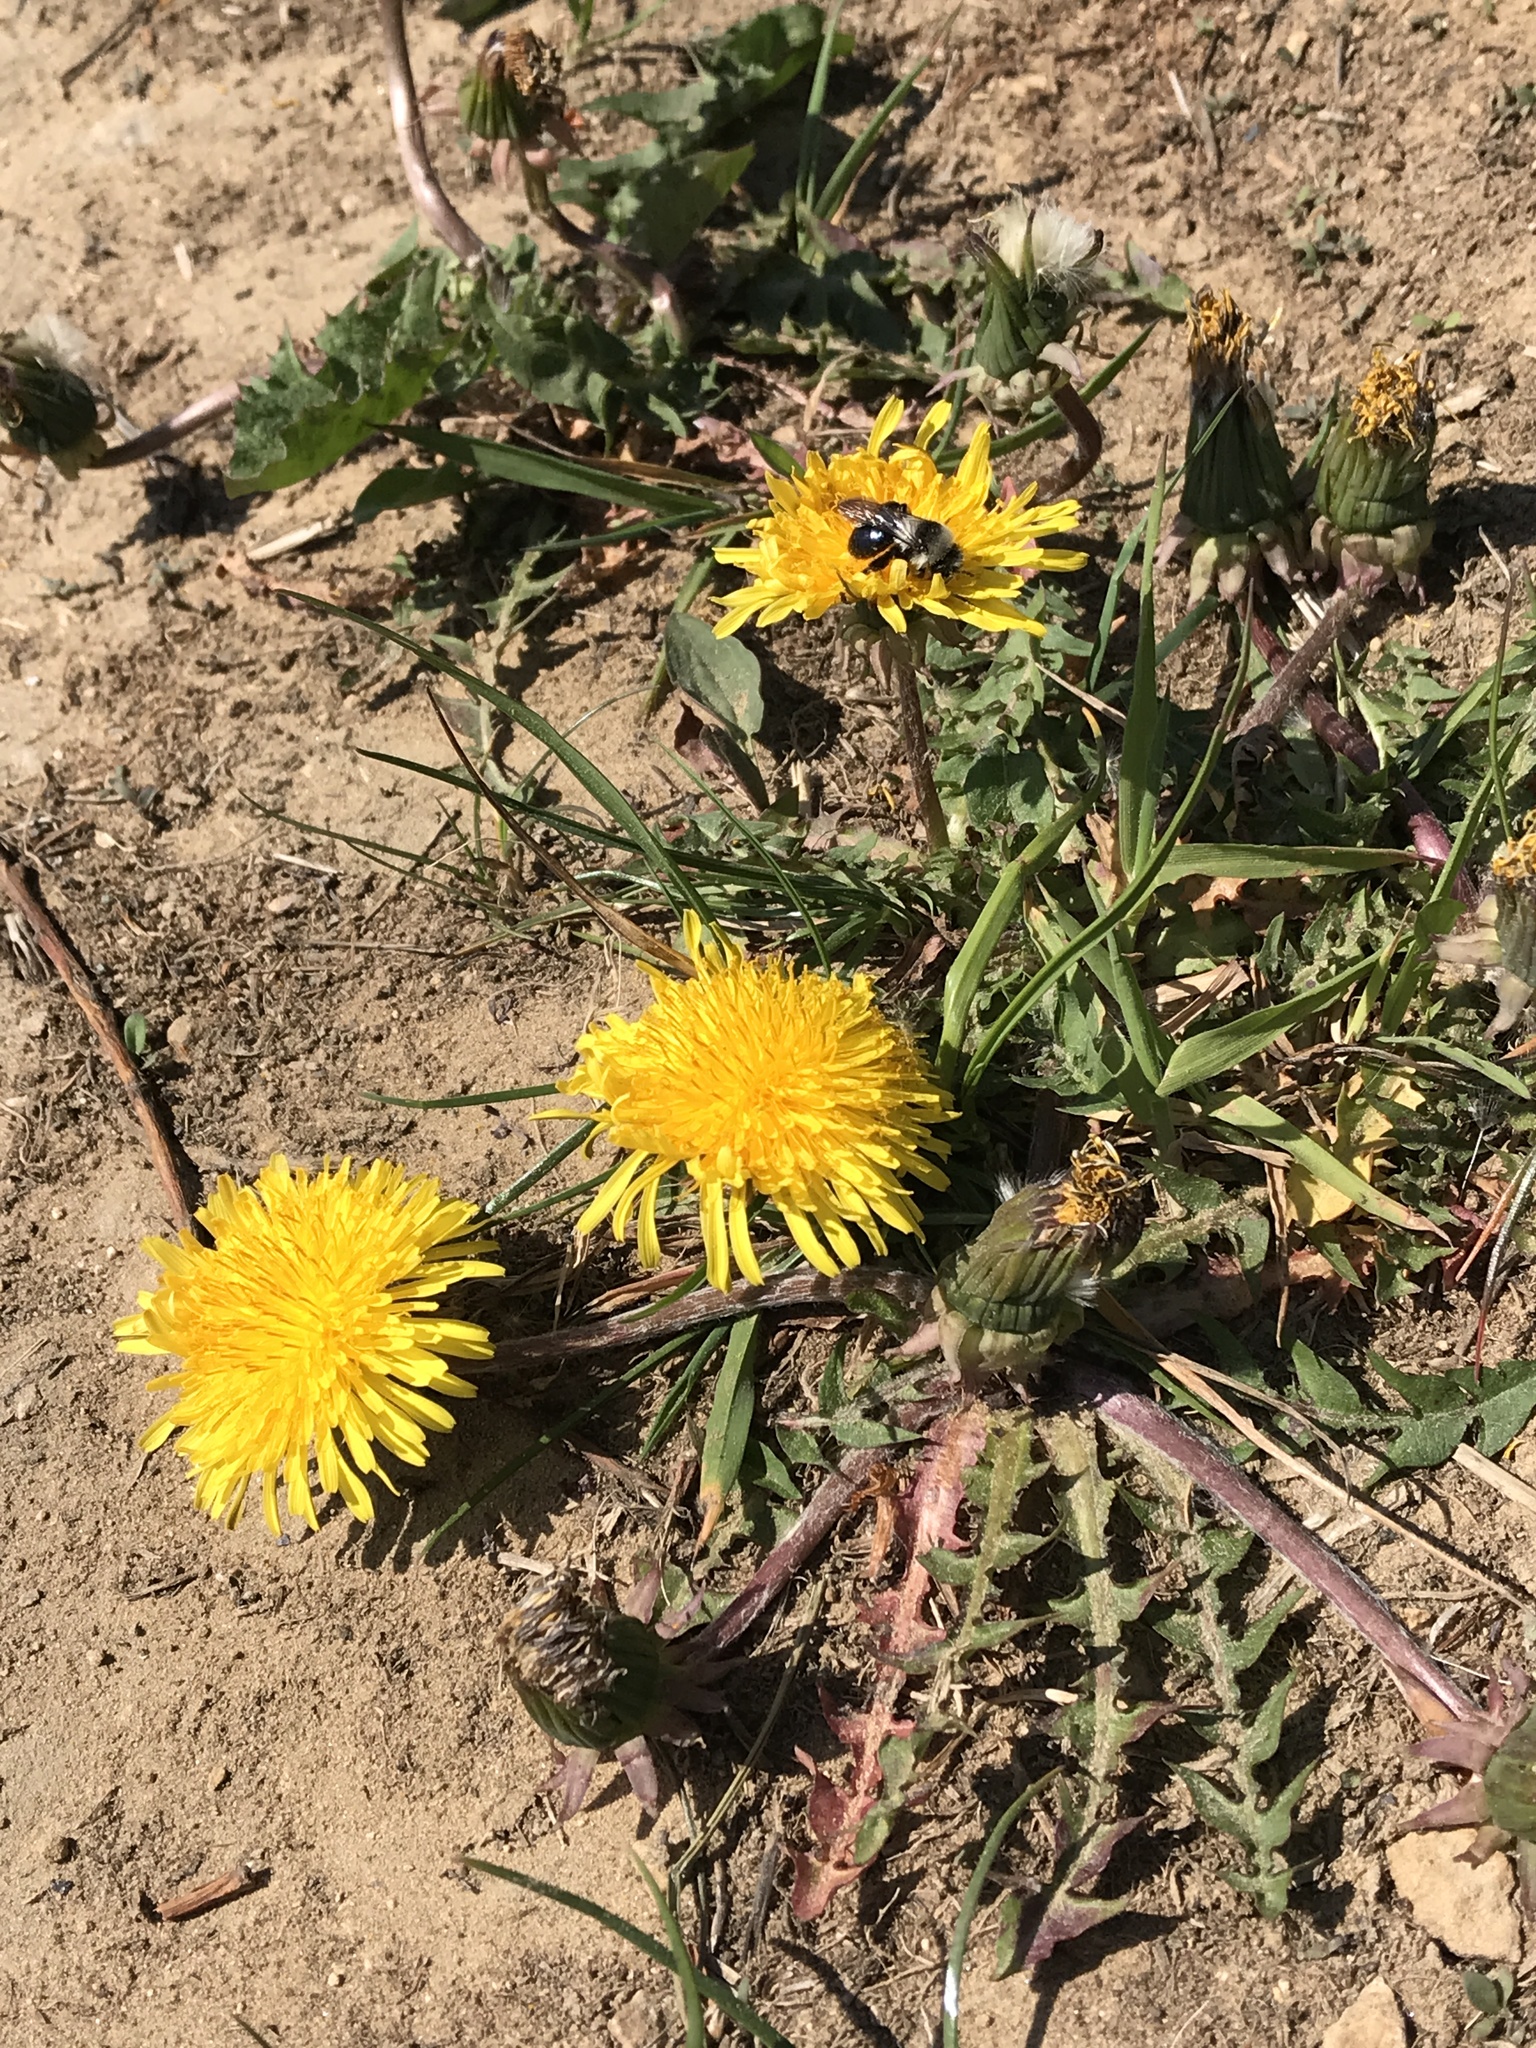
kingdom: Plantae
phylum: Tracheophyta
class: Magnoliopsida
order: Asterales
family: Asteraceae
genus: Taraxacum
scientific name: Taraxacum officinale
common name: Common dandelion
